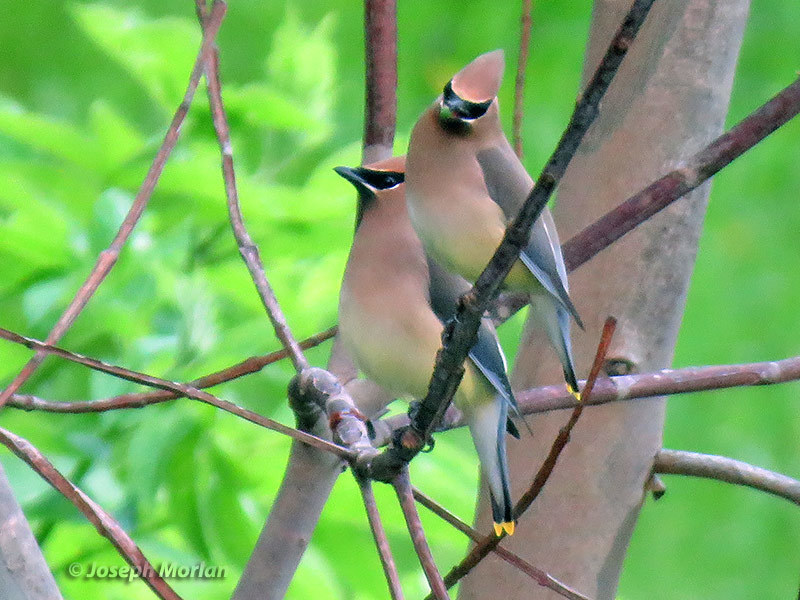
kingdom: Animalia
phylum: Chordata
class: Aves
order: Passeriformes
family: Bombycillidae
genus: Bombycilla
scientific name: Bombycilla cedrorum
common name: Cedar waxwing
